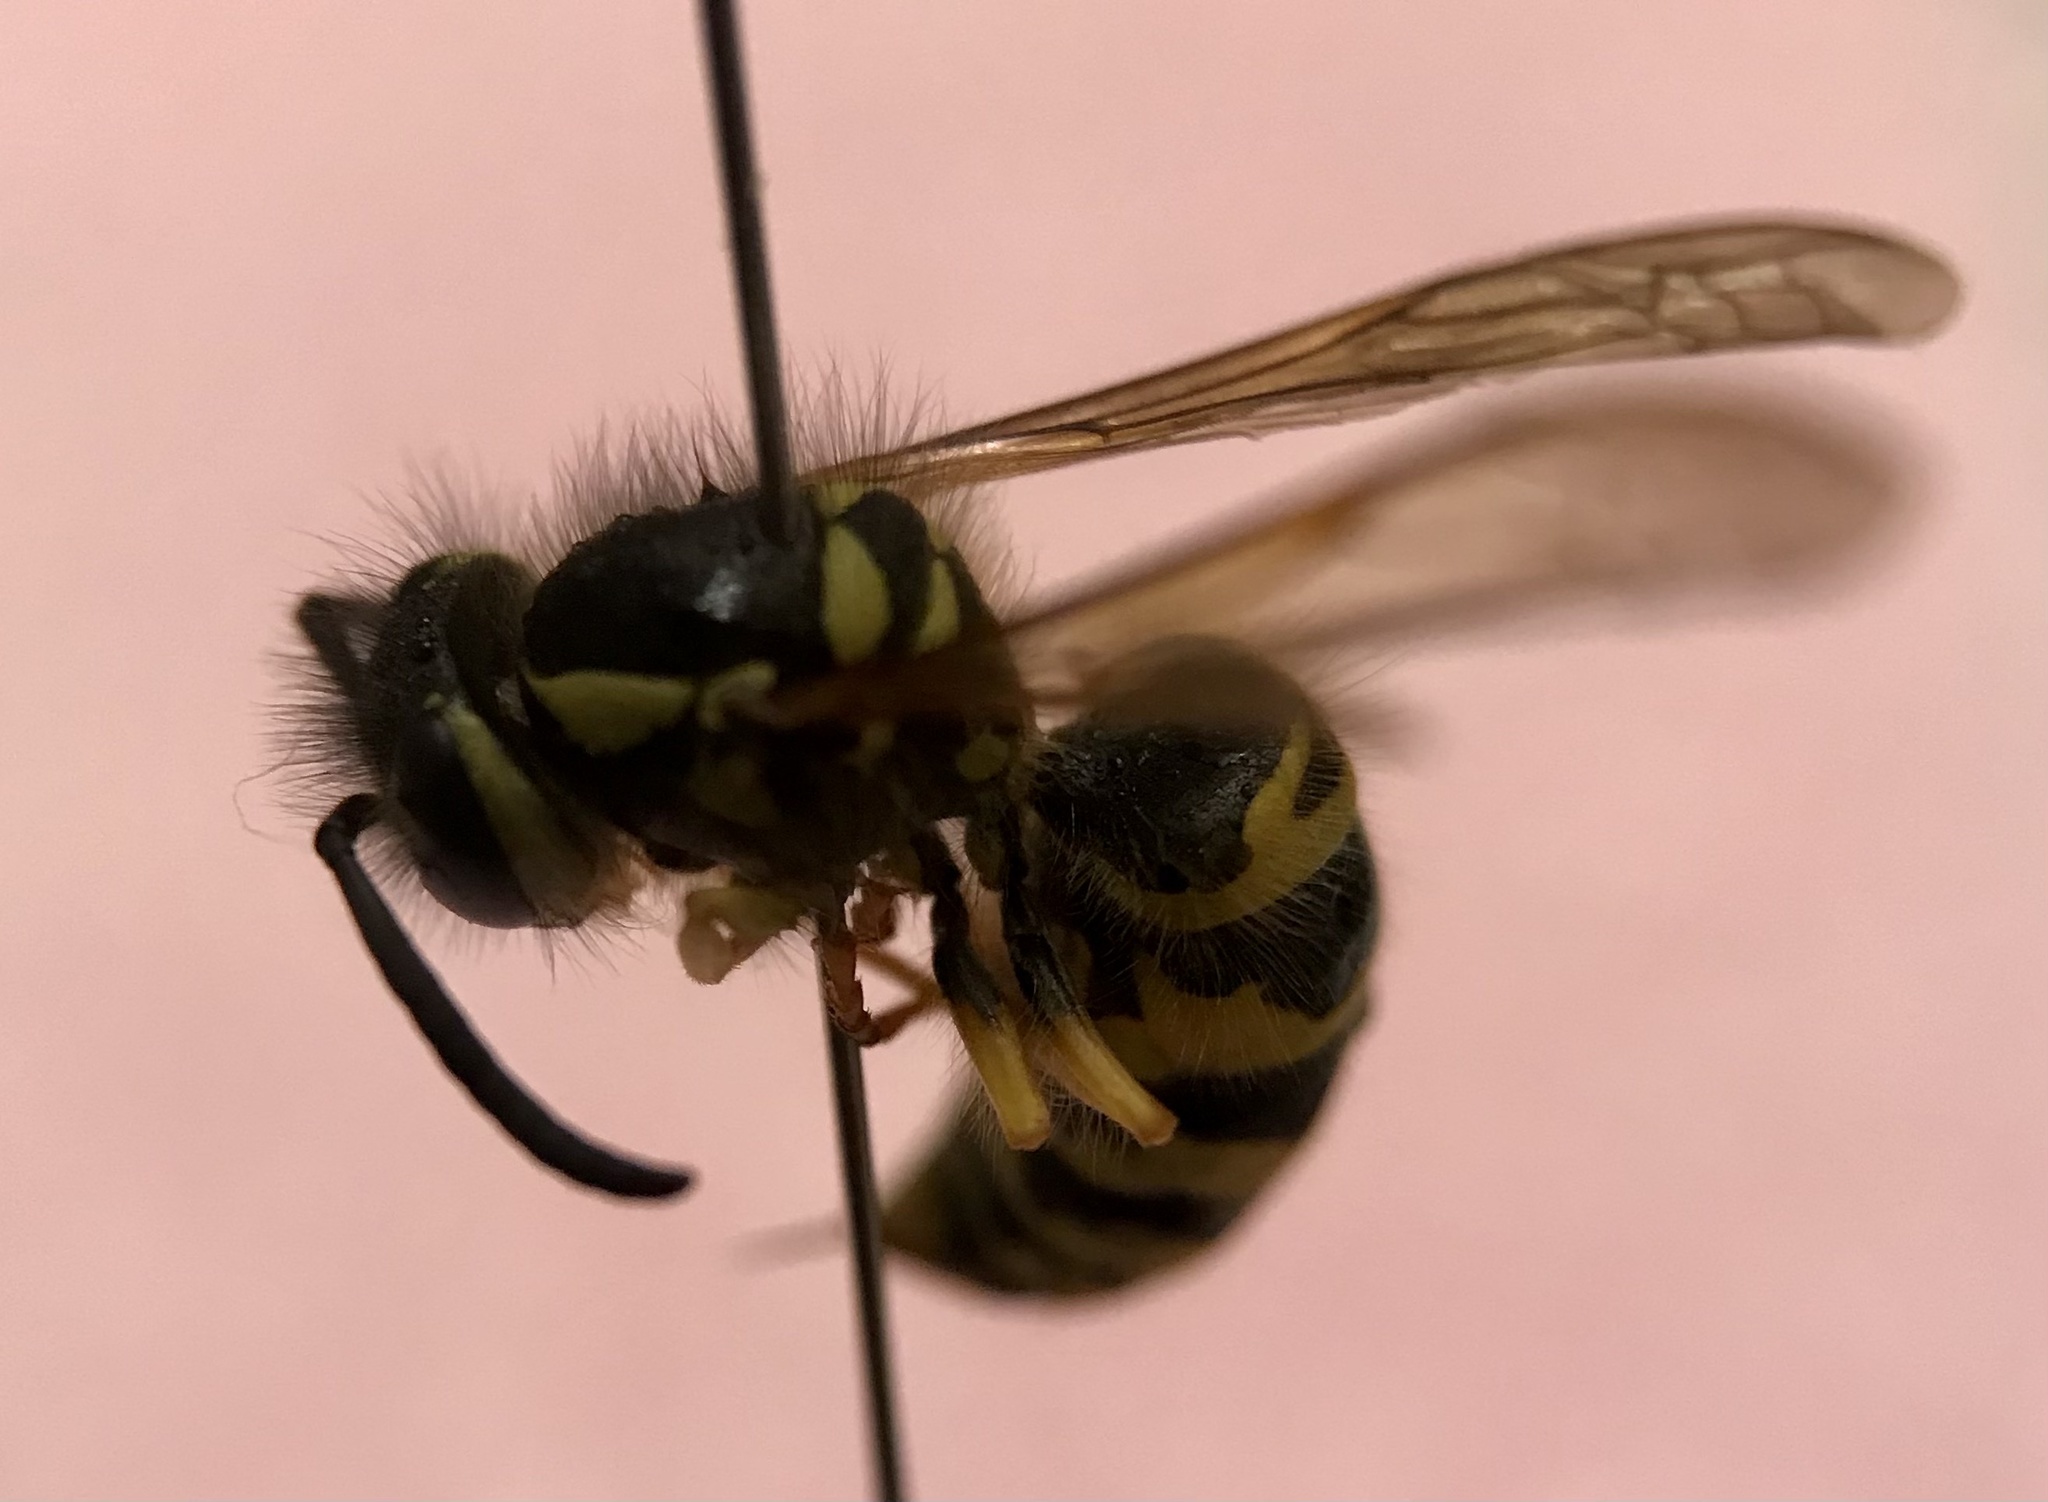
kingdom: Animalia
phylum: Arthropoda
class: Insecta
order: Hymenoptera
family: Vespidae
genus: Vespula
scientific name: Vespula maculifrons
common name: Eastern yellowjacket
